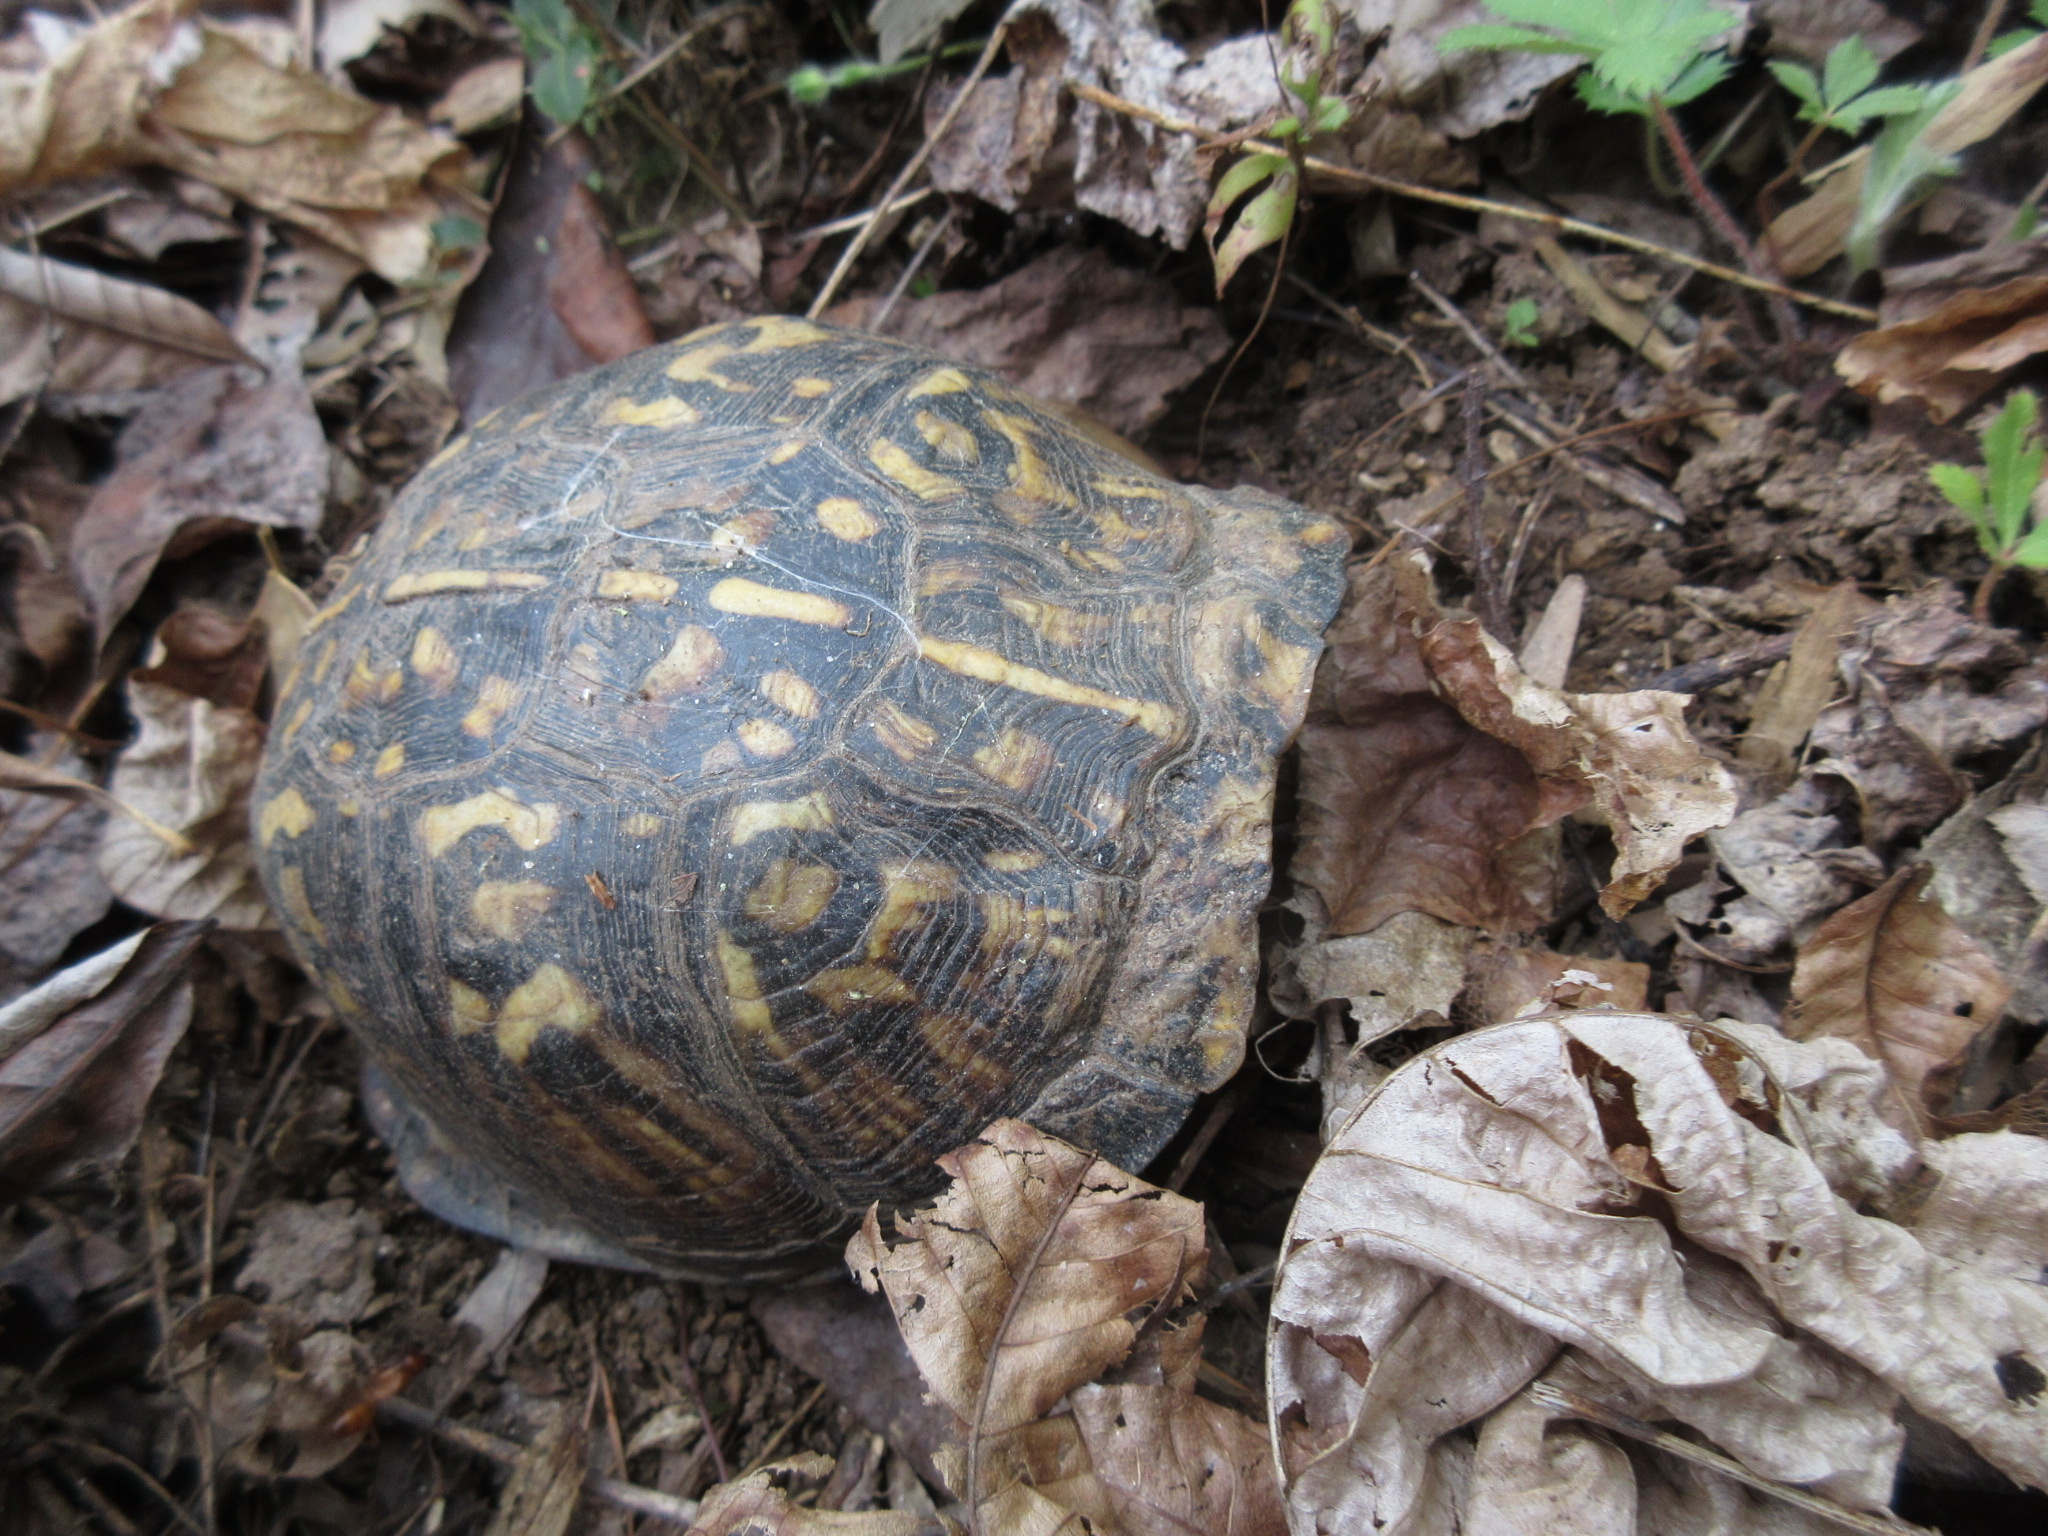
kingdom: Animalia
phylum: Chordata
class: Testudines
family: Emydidae
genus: Terrapene
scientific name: Terrapene carolina
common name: Common box turtle
